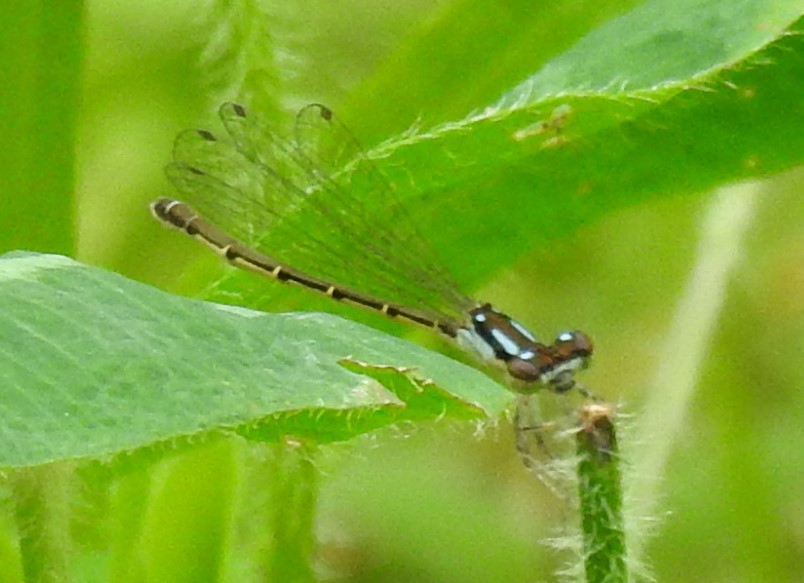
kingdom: Animalia
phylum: Arthropoda
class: Insecta
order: Odonata
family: Coenagrionidae
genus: Ischnura
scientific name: Ischnura posita
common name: Fragile forktail
